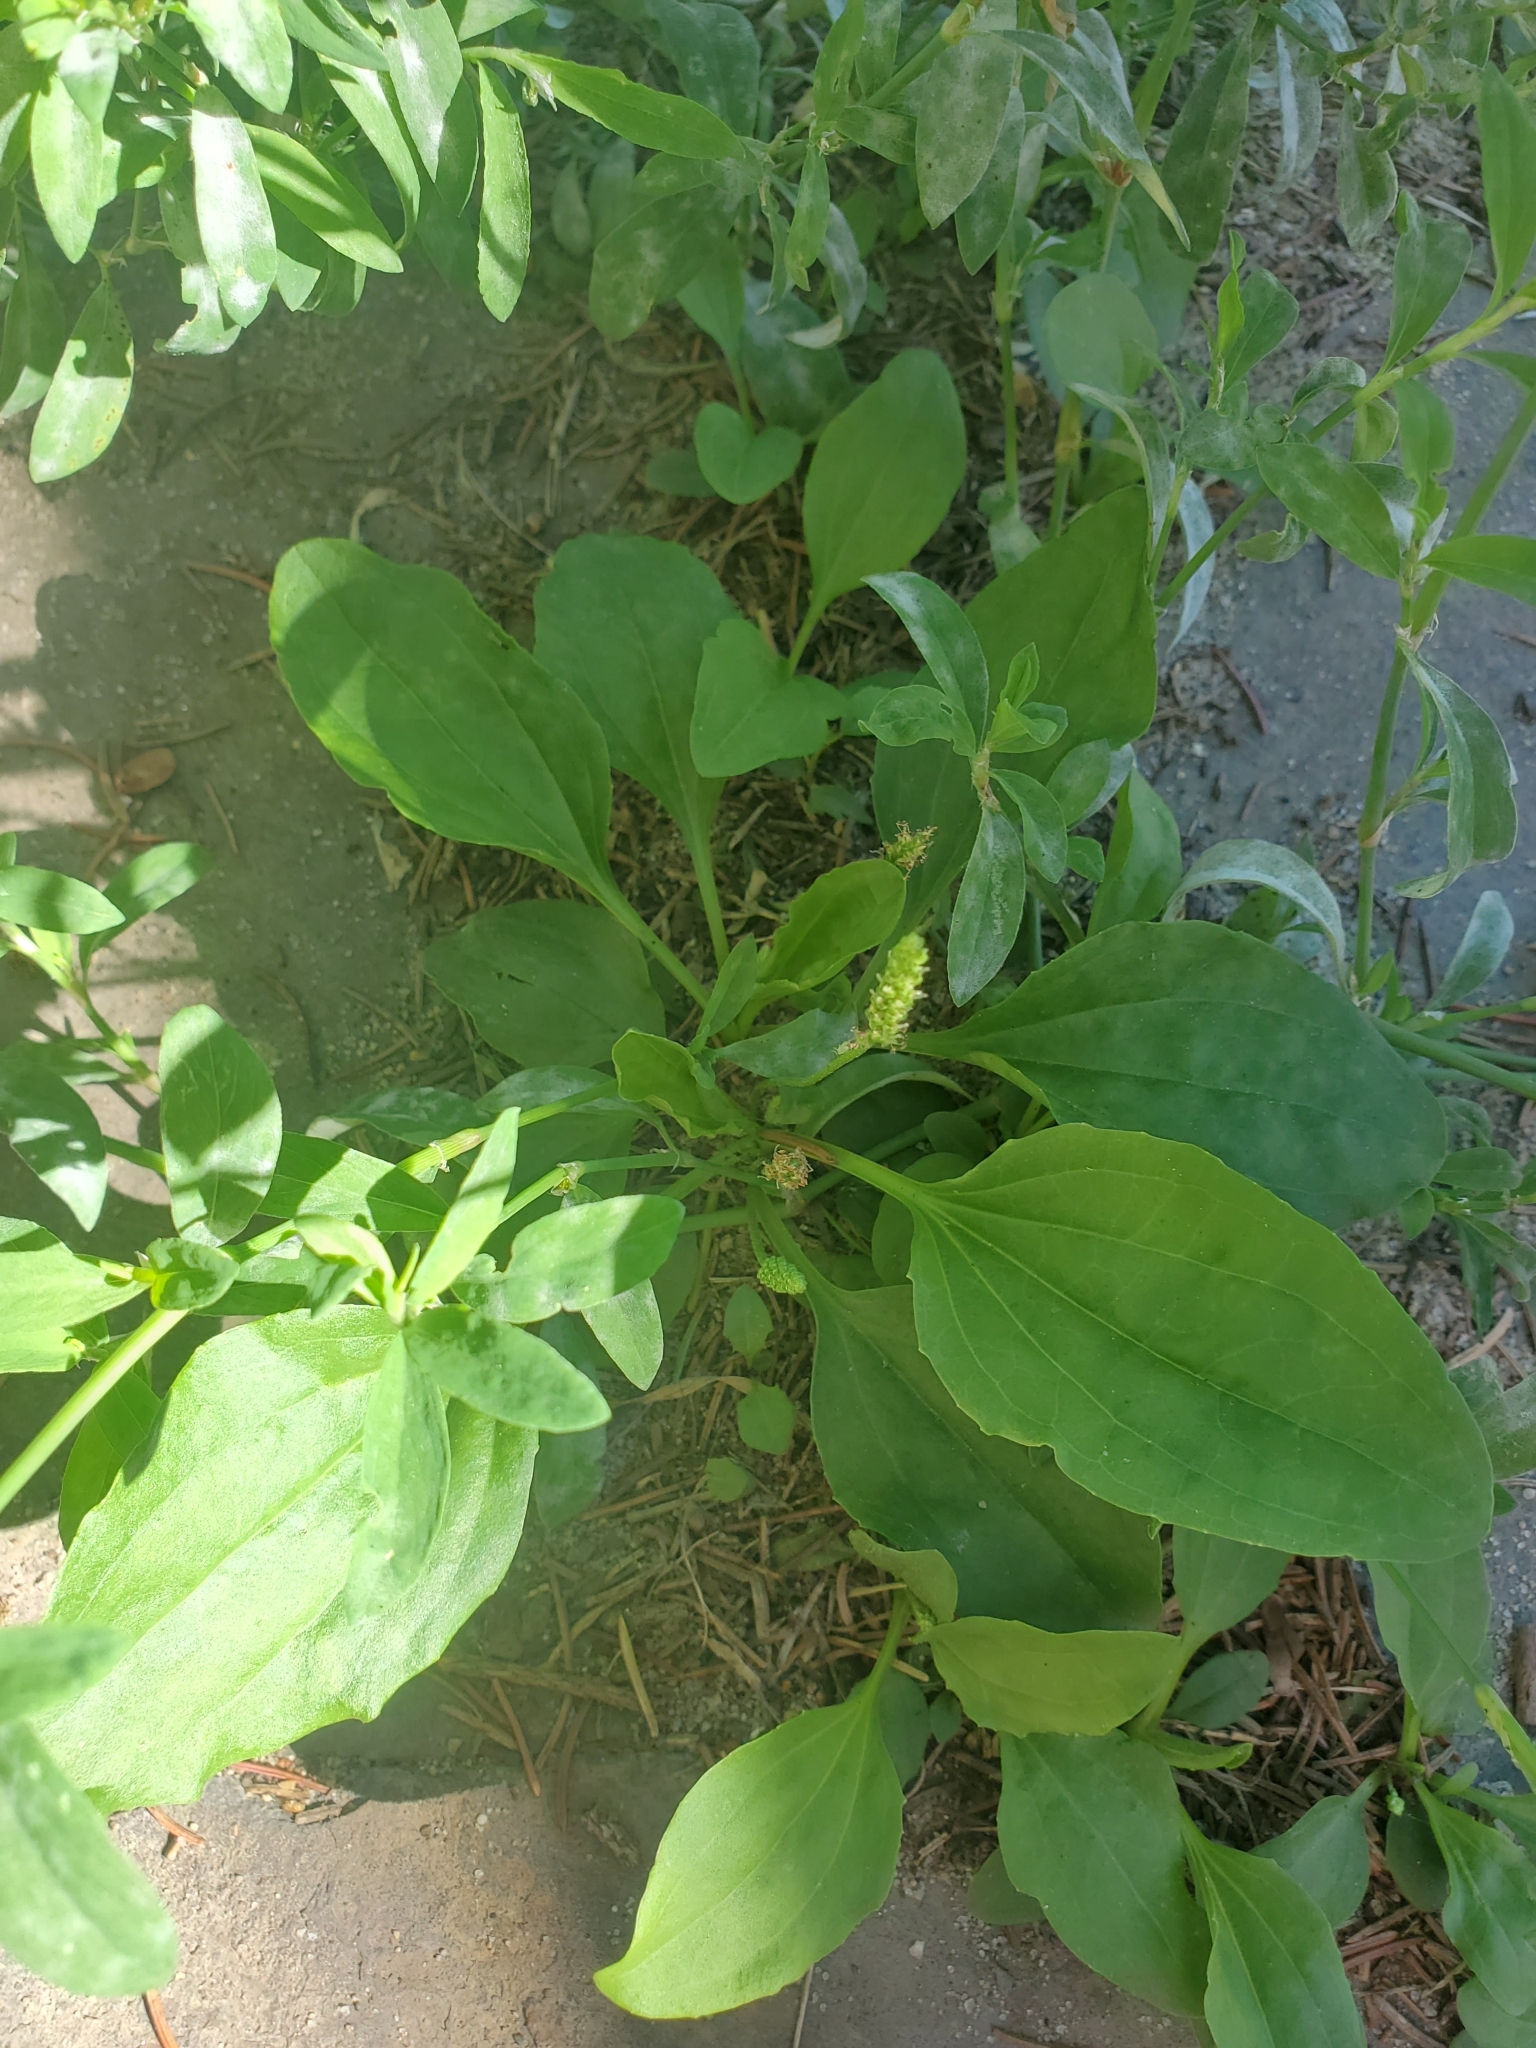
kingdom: Plantae
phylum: Tracheophyta
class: Magnoliopsida
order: Lamiales
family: Plantaginaceae
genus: Plantago
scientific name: Plantago major
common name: Common plantain
